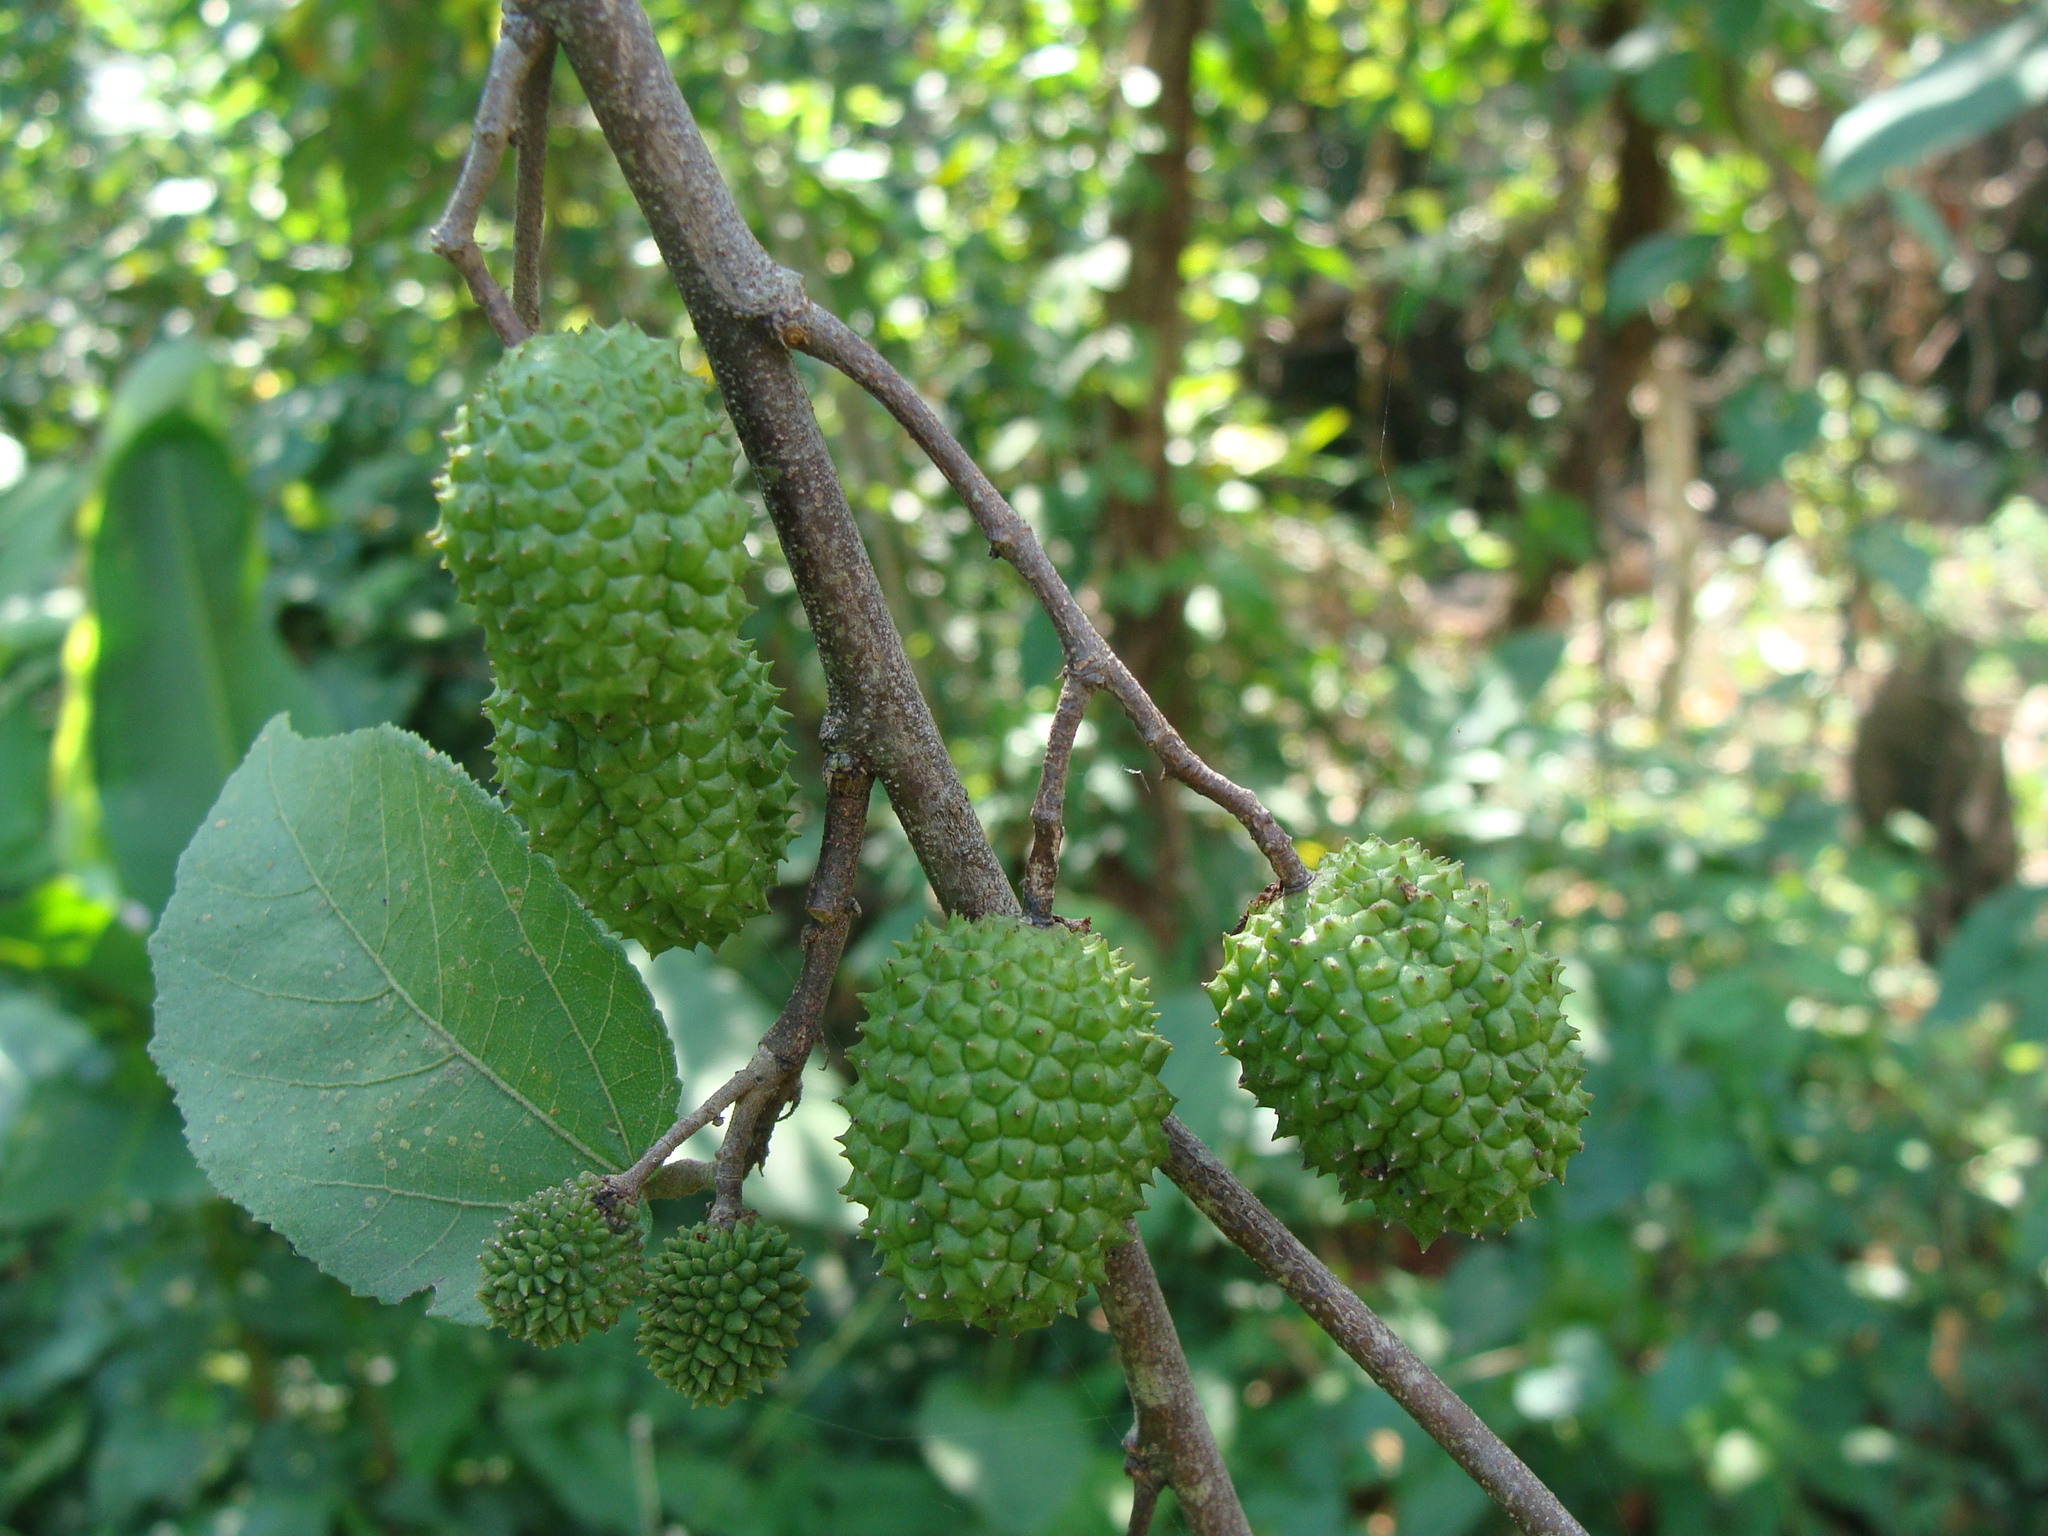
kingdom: Plantae
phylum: Tracheophyta
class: Magnoliopsida
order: Malvales
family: Malvaceae
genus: Guazuma
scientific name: Guazuma ulmifolia
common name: Bastard-cedar
